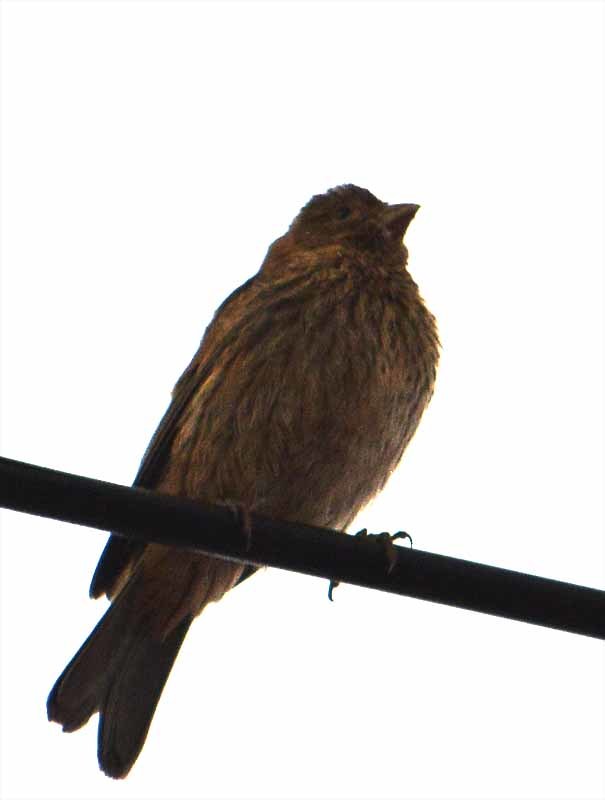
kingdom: Animalia
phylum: Chordata
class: Aves
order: Passeriformes
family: Fringillidae
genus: Haemorhous
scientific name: Haemorhous mexicanus
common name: House finch
